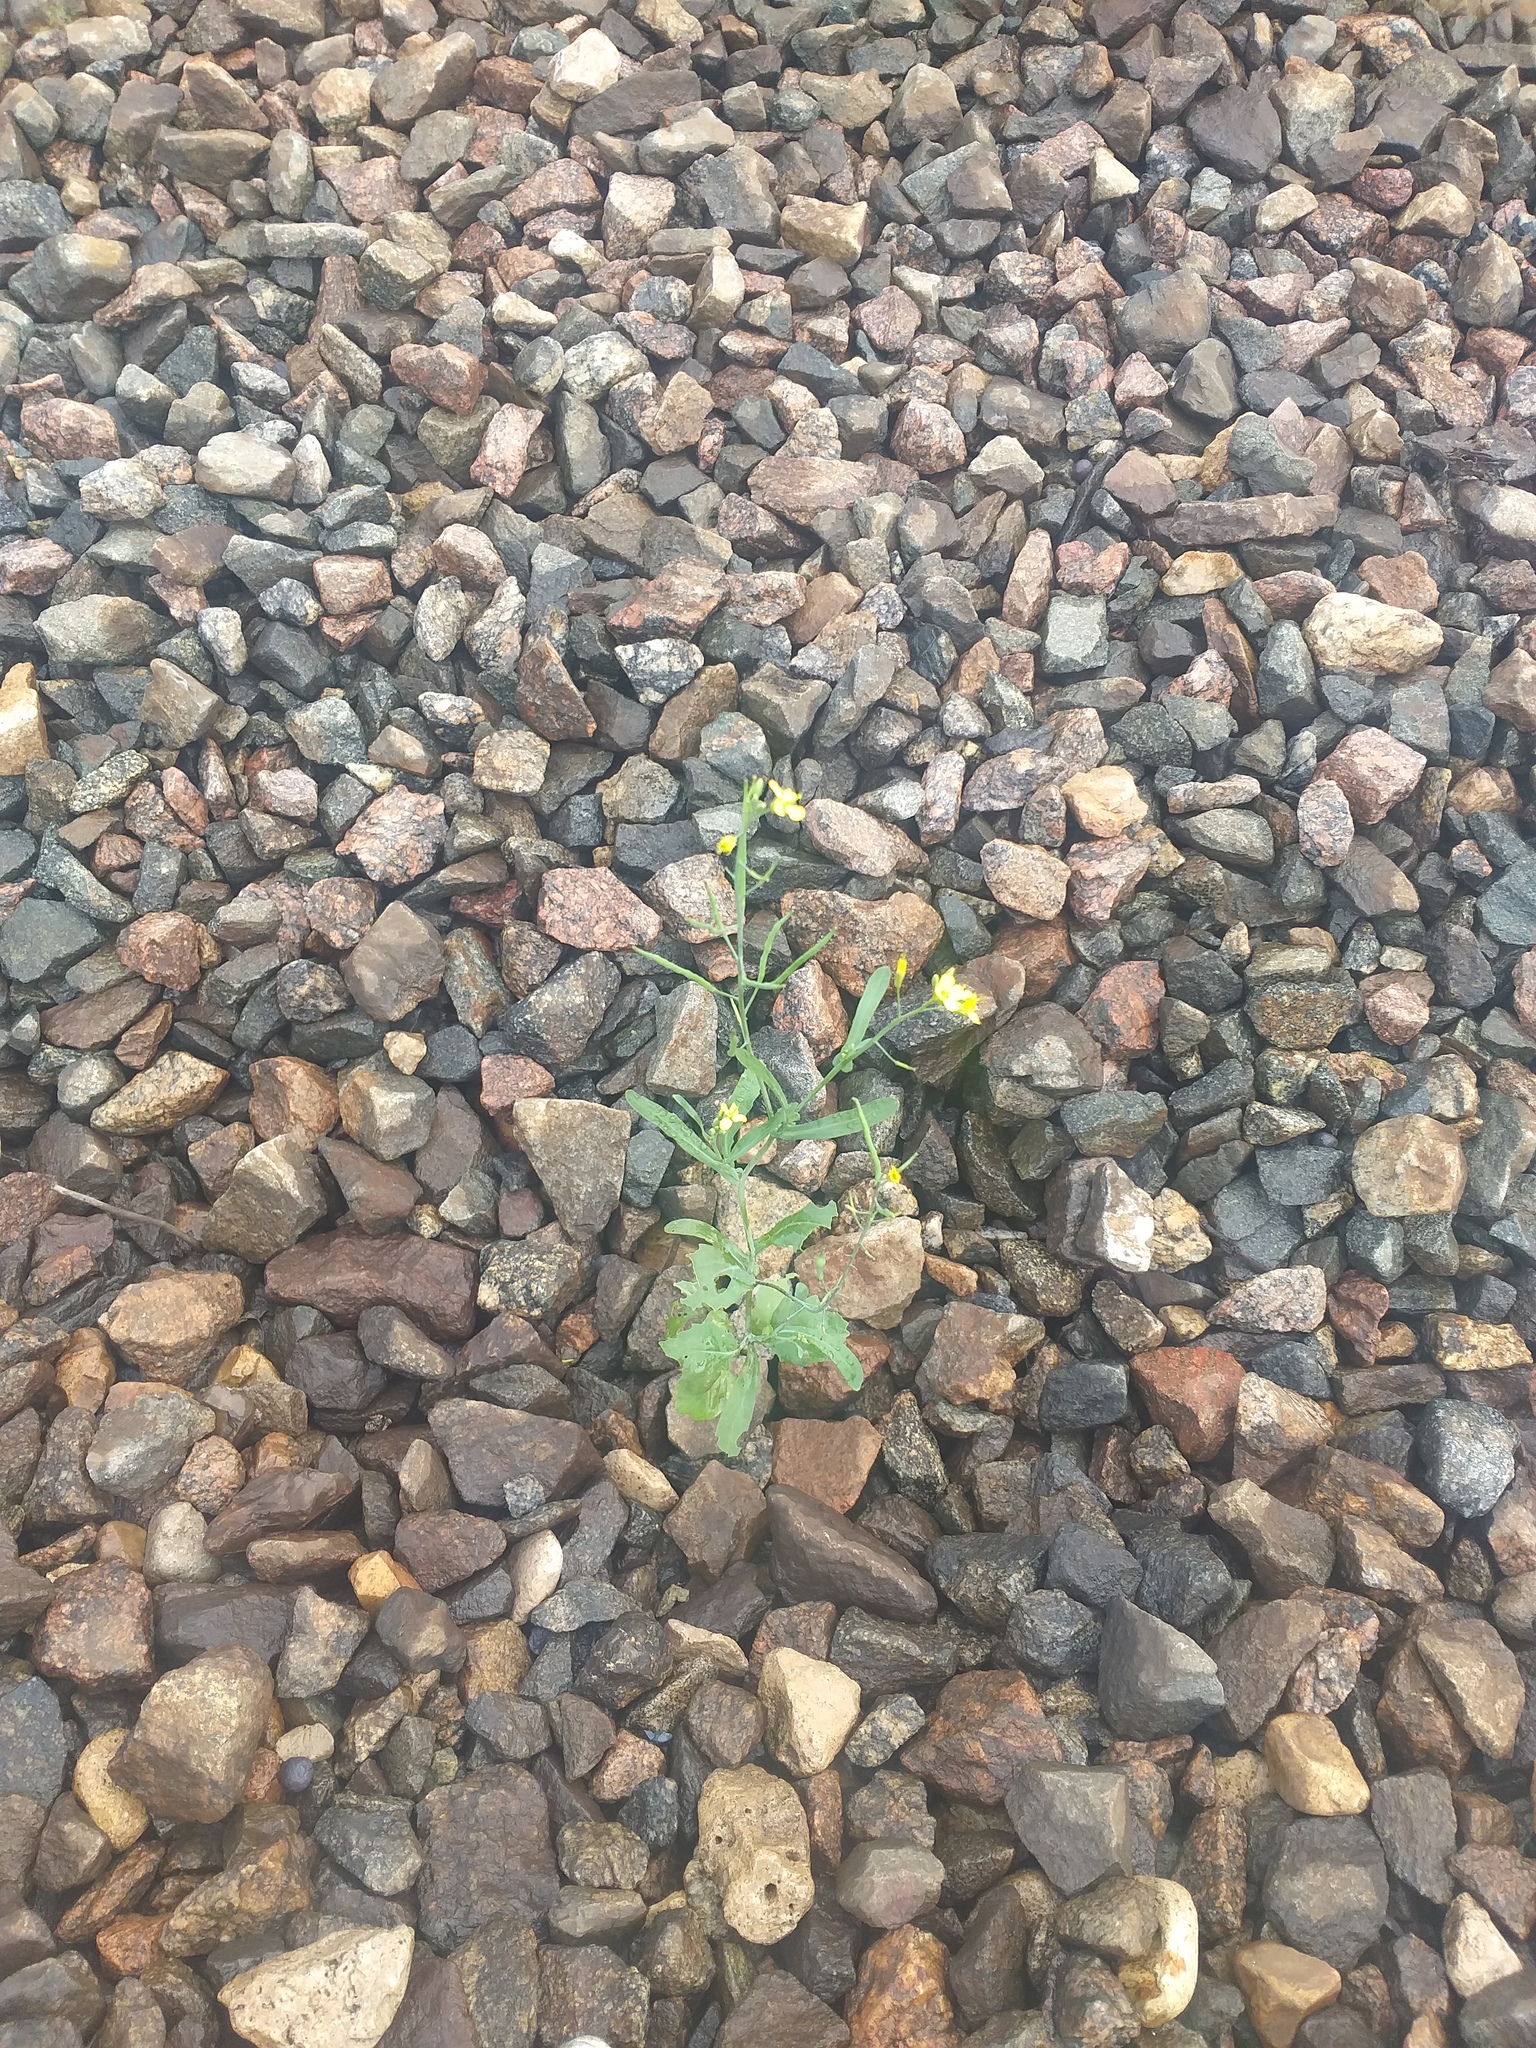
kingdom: Plantae
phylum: Tracheophyta
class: Magnoliopsida
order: Brassicales
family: Brassicaceae
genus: Brassica
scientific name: Brassica napus
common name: Rape
